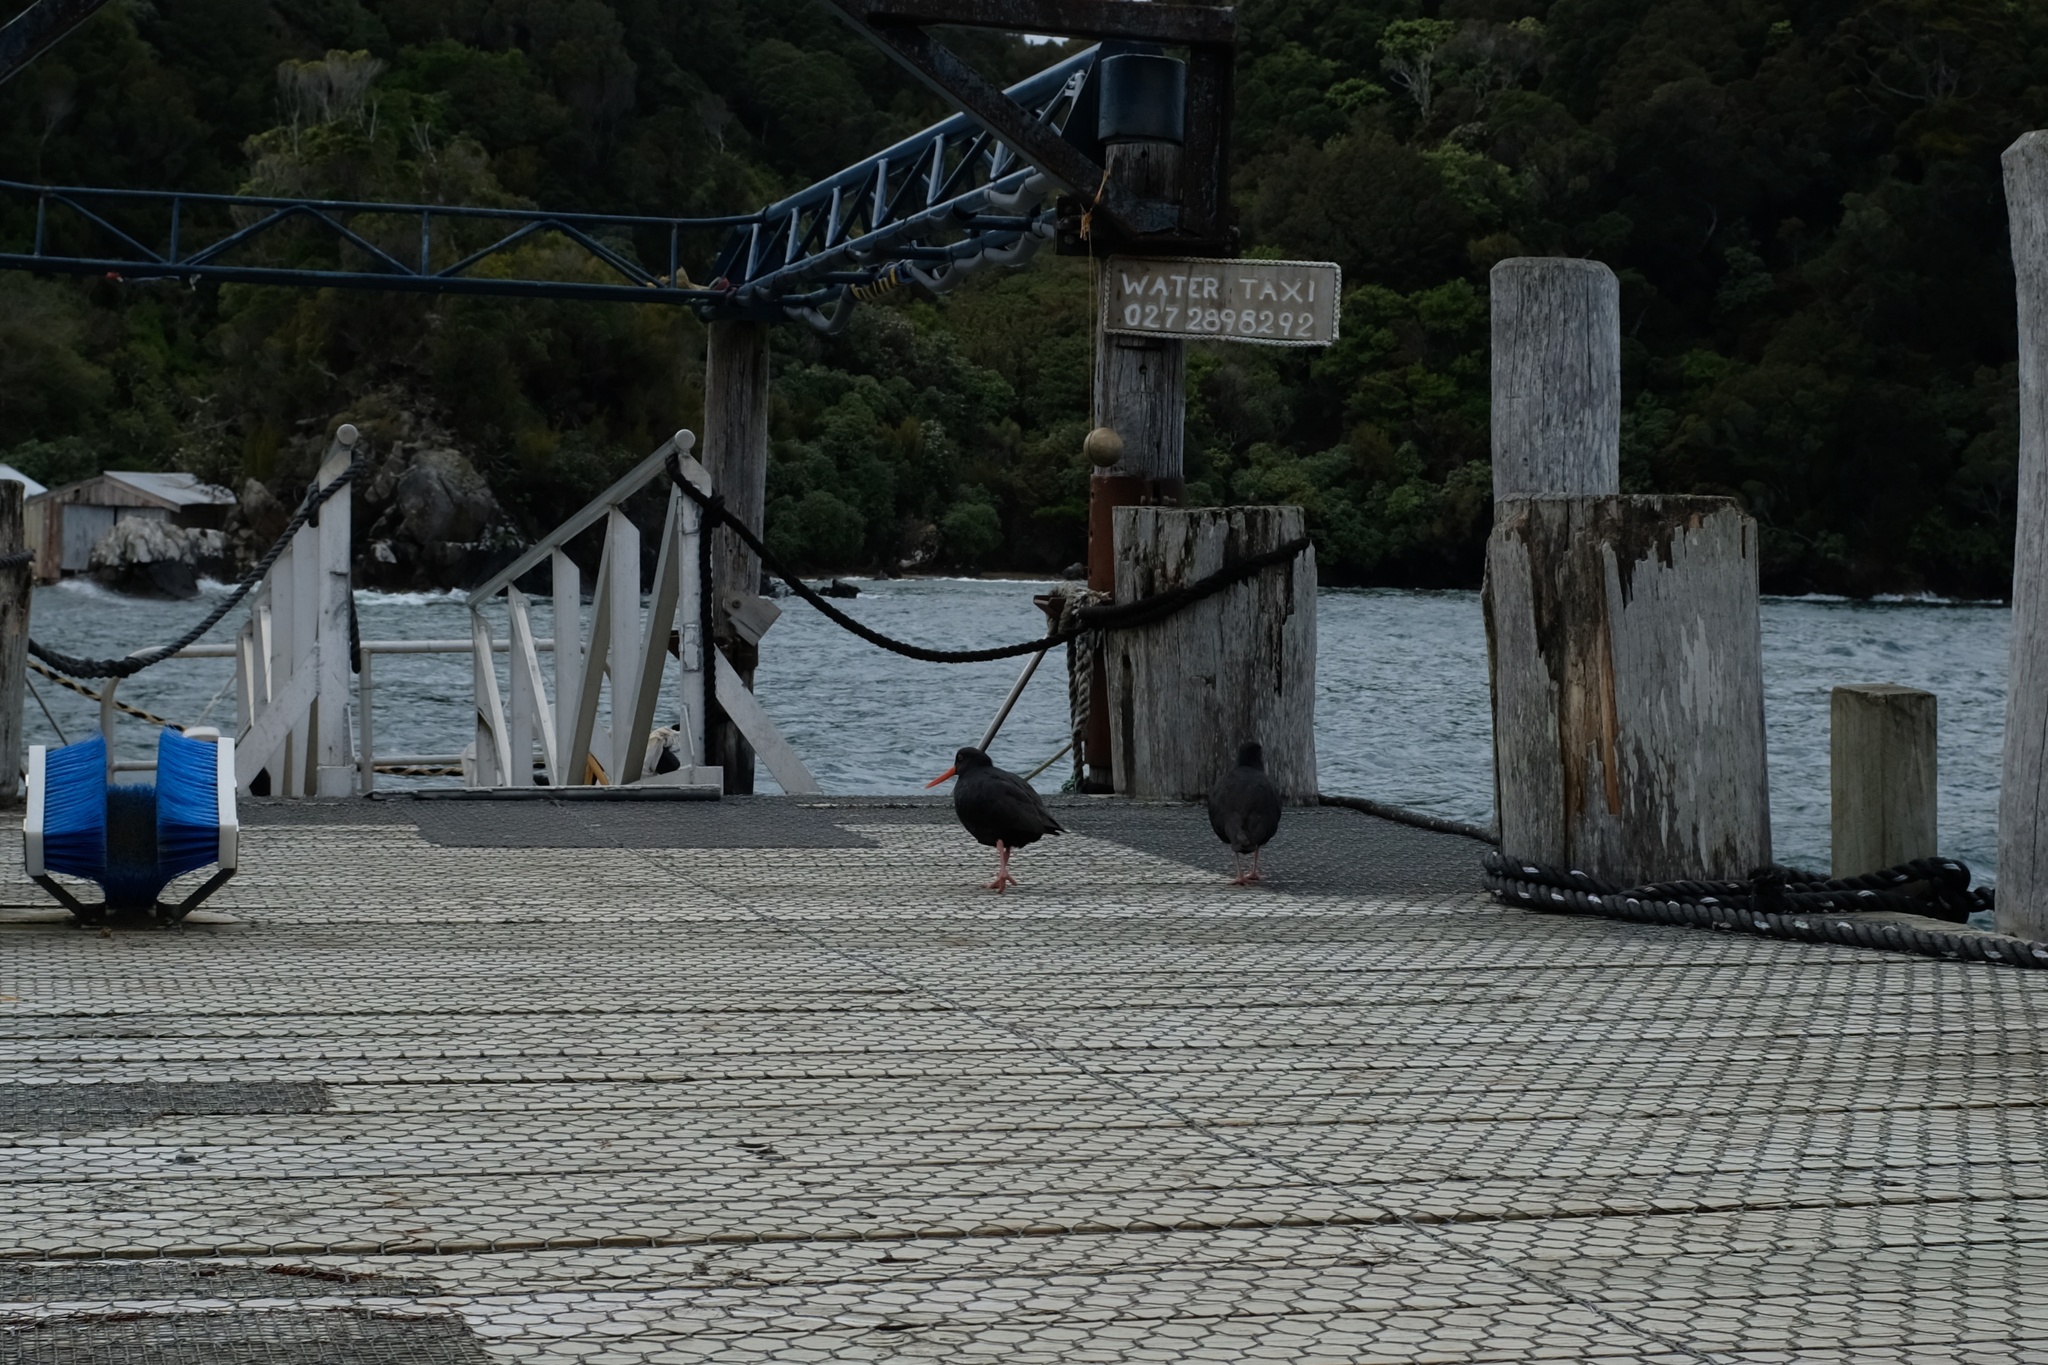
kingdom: Animalia
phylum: Chordata
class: Aves
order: Charadriiformes
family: Haematopodidae
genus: Haematopus
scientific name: Haematopus unicolor
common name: Variable oystercatcher
